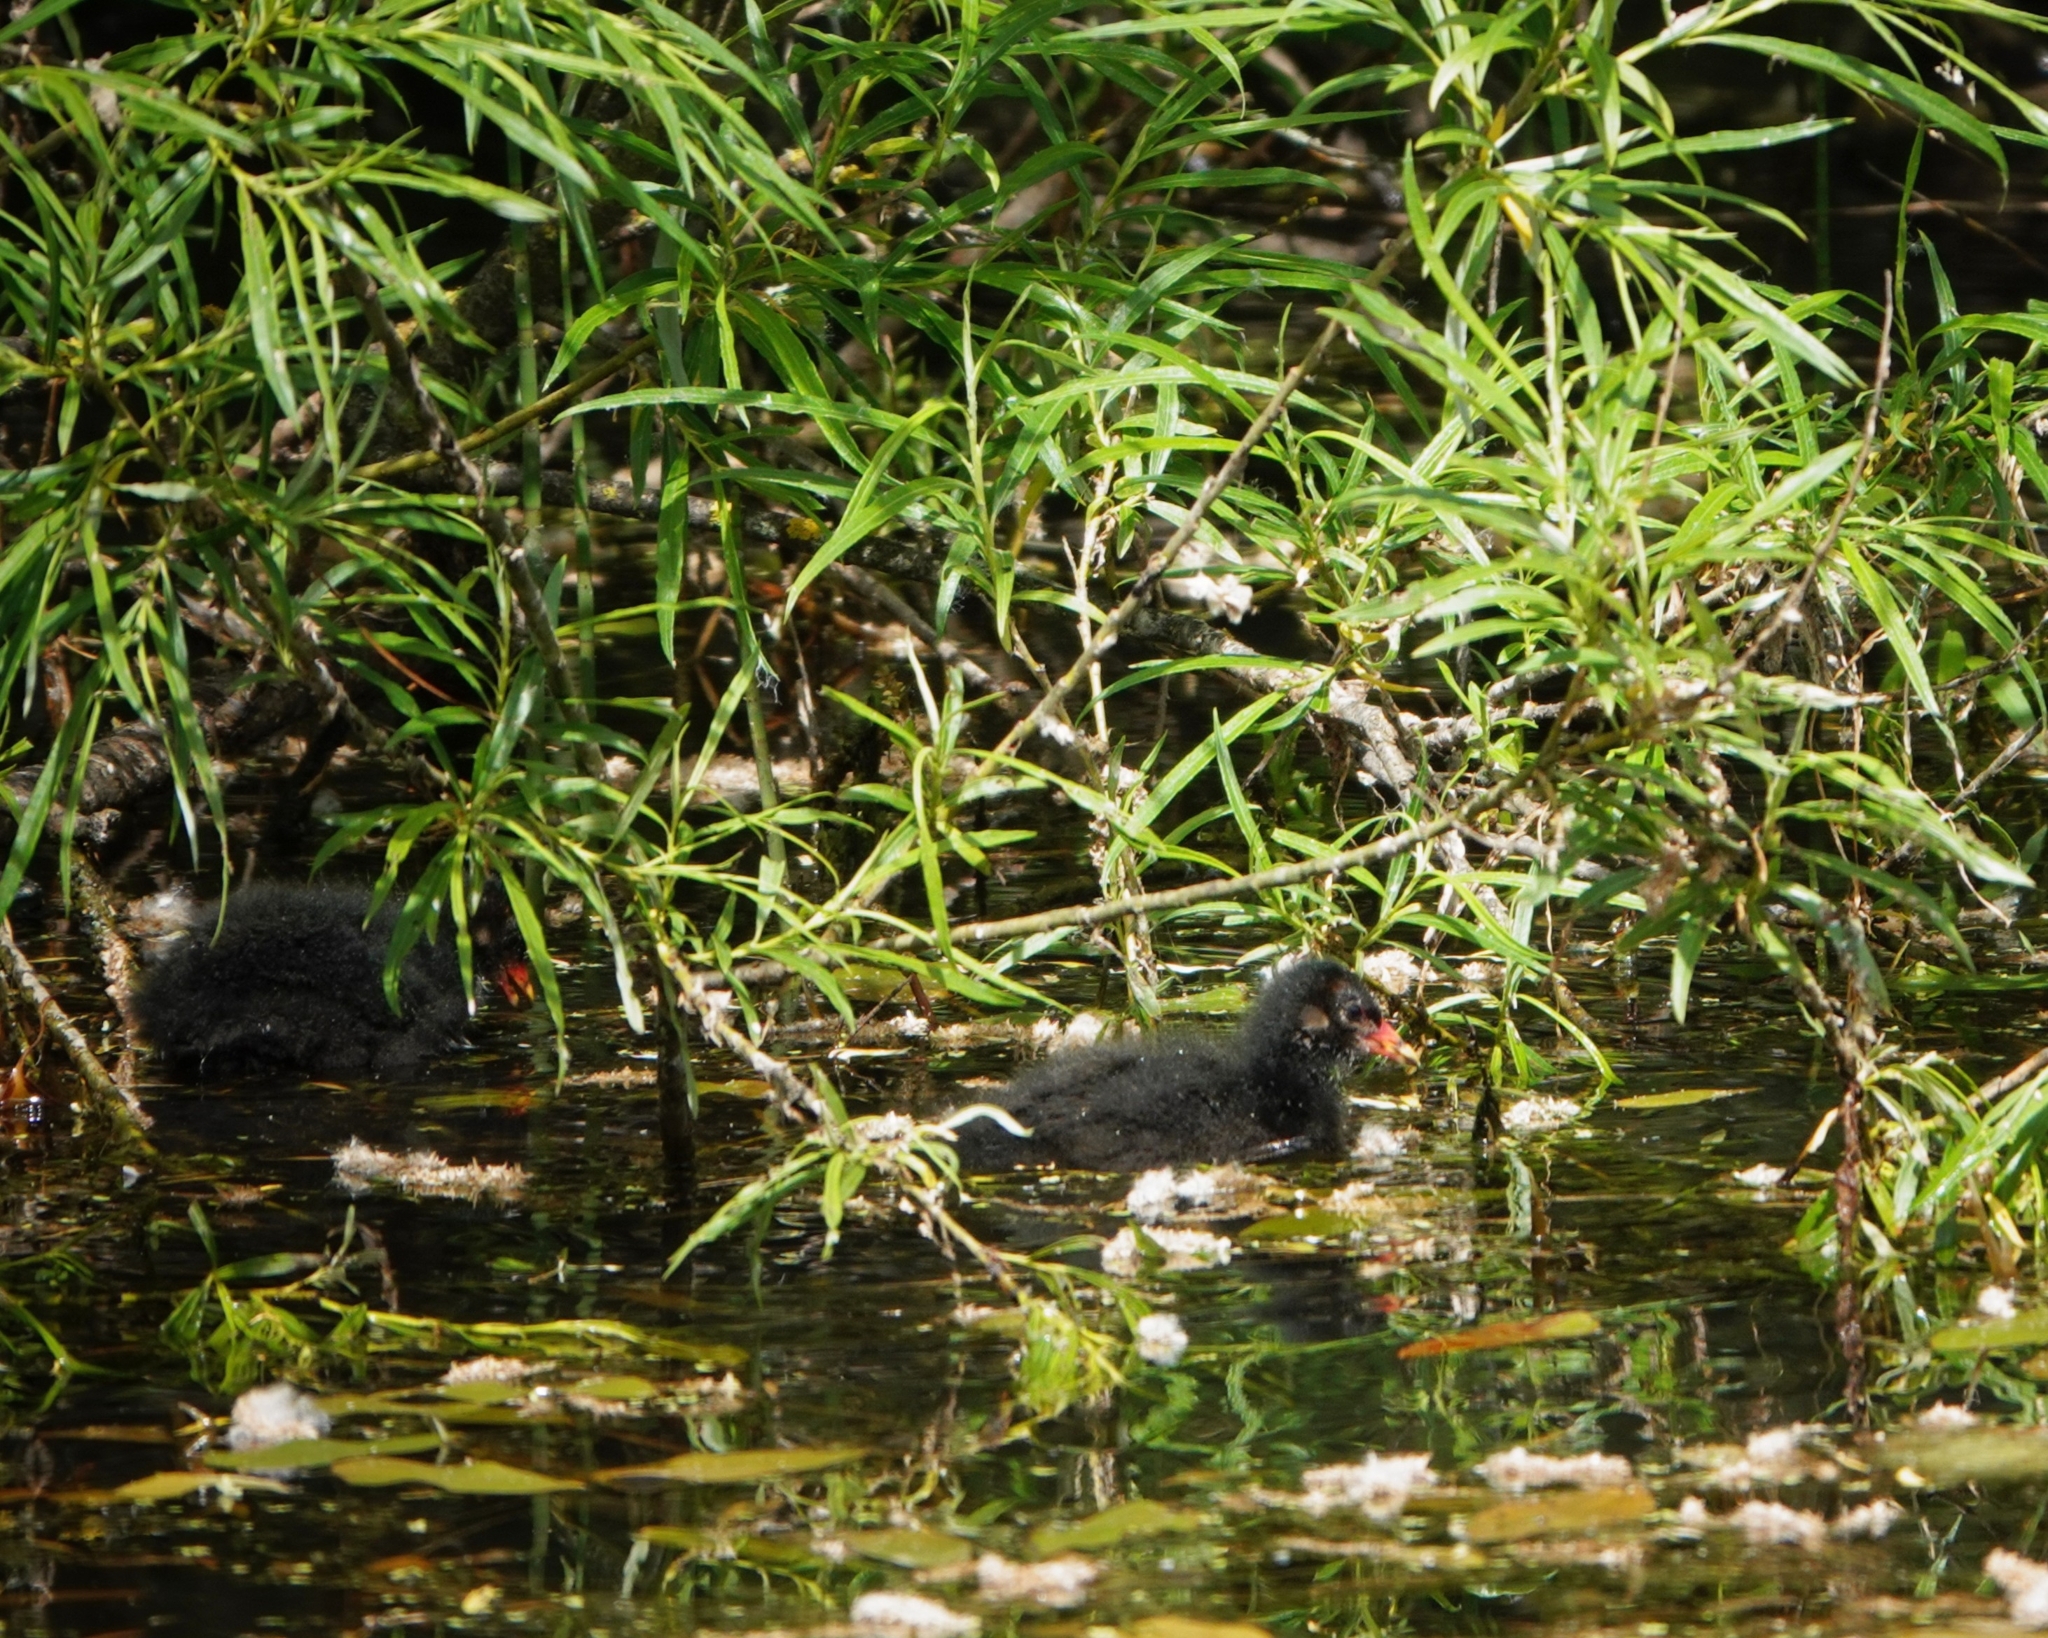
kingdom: Animalia
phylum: Chordata
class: Aves
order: Gruiformes
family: Rallidae
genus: Gallinula
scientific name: Gallinula chloropus
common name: Common moorhen
